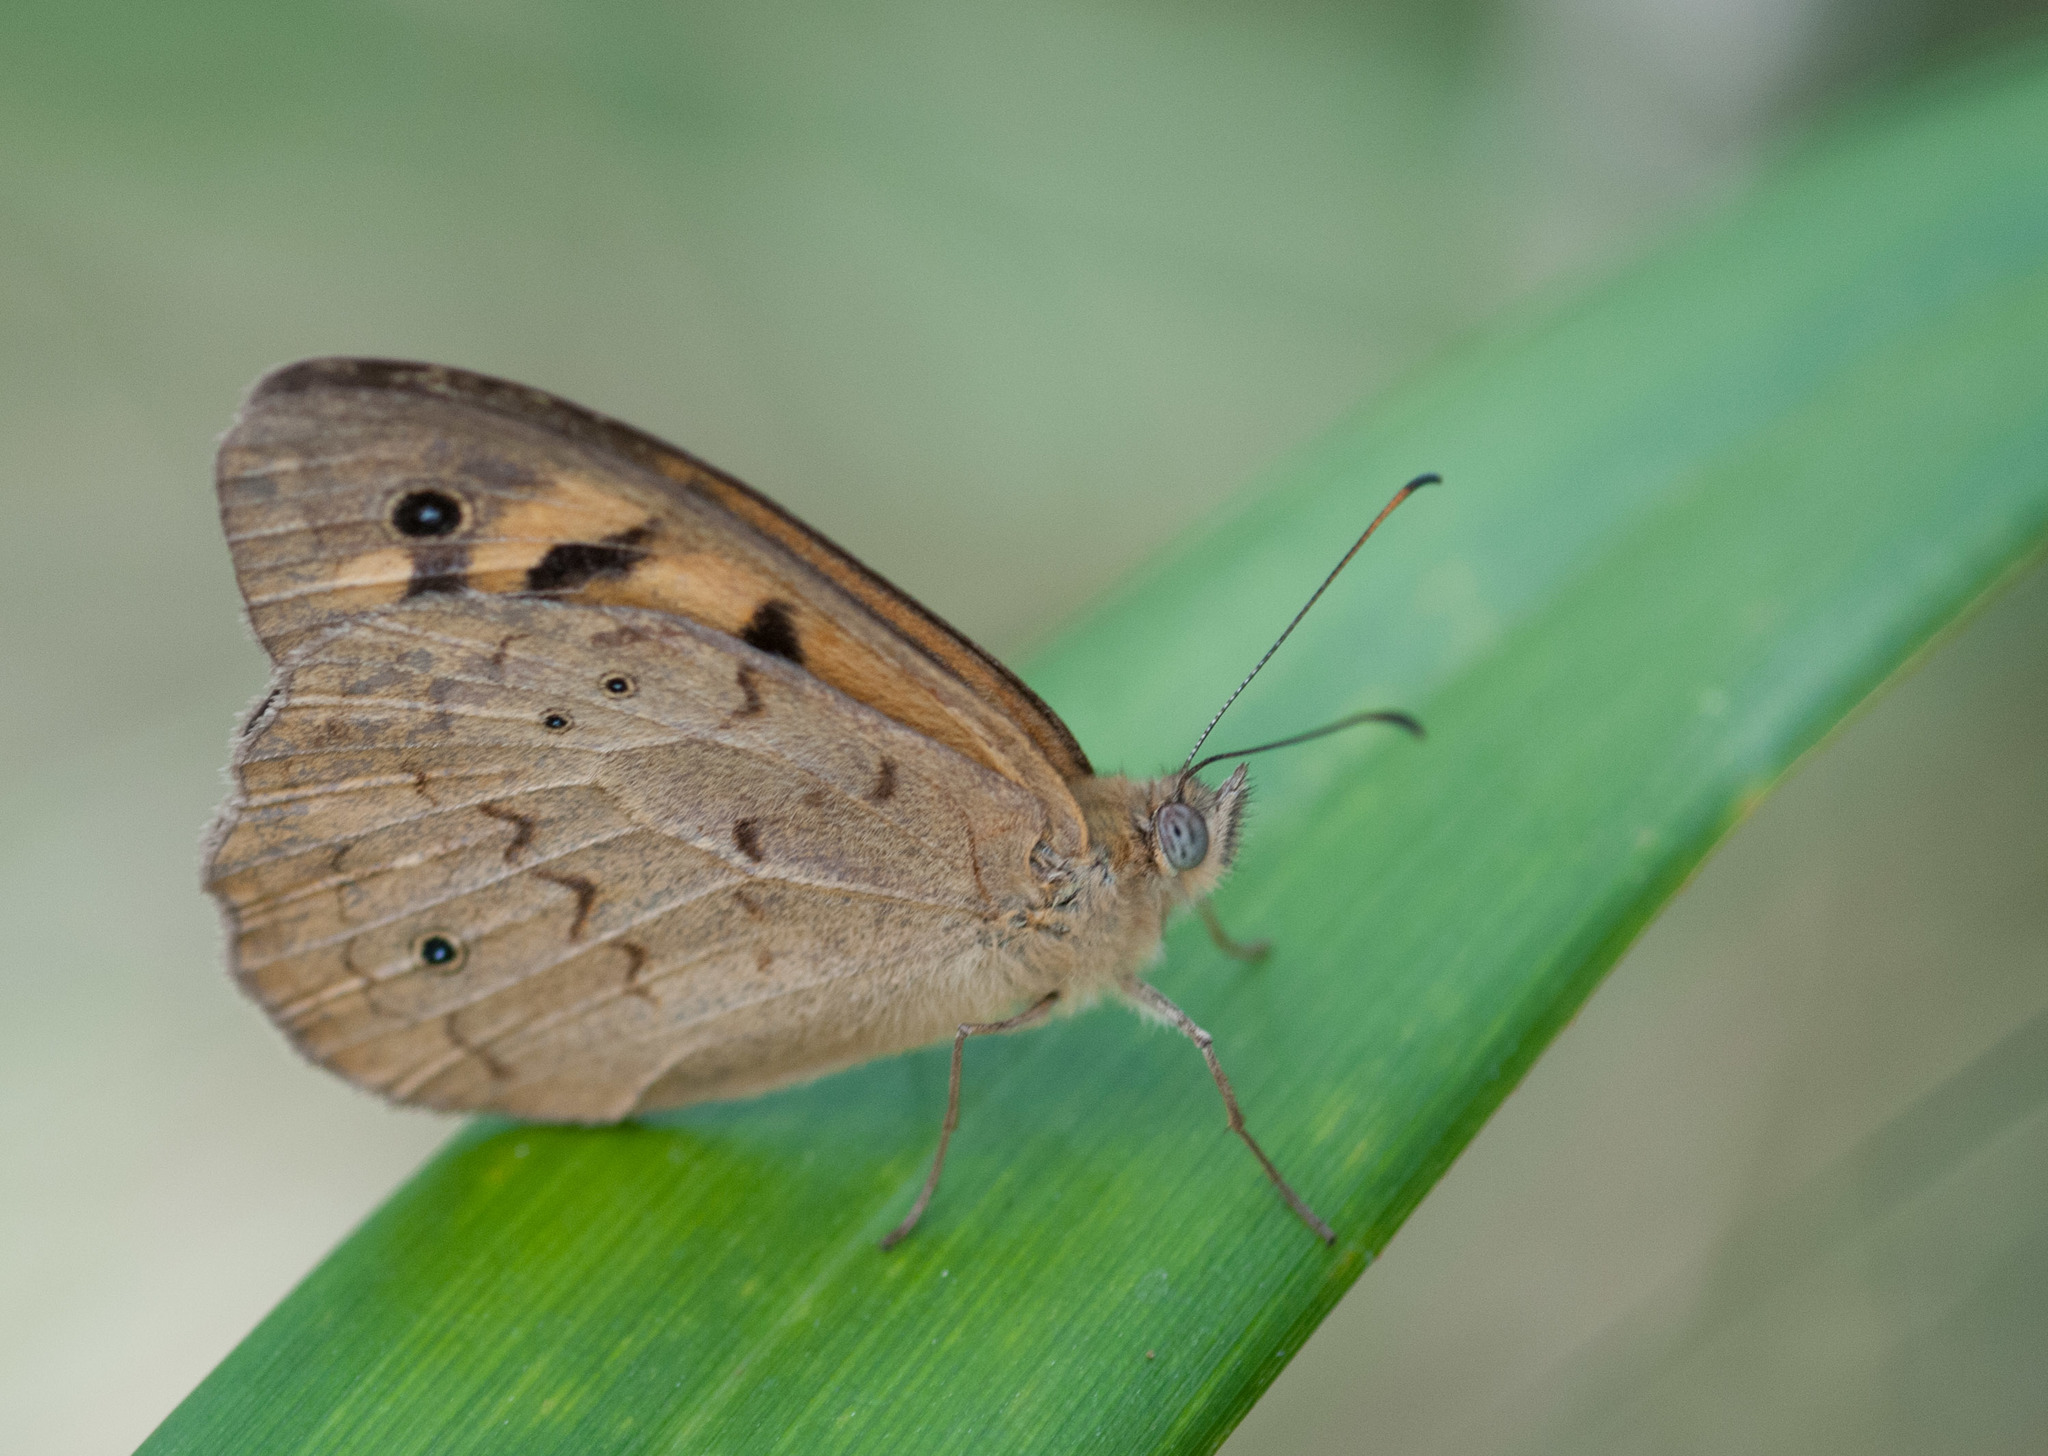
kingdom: Animalia
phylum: Arthropoda
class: Insecta
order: Lepidoptera
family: Nymphalidae
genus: Heteronympha
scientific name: Heteronympha merope
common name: Common brown
